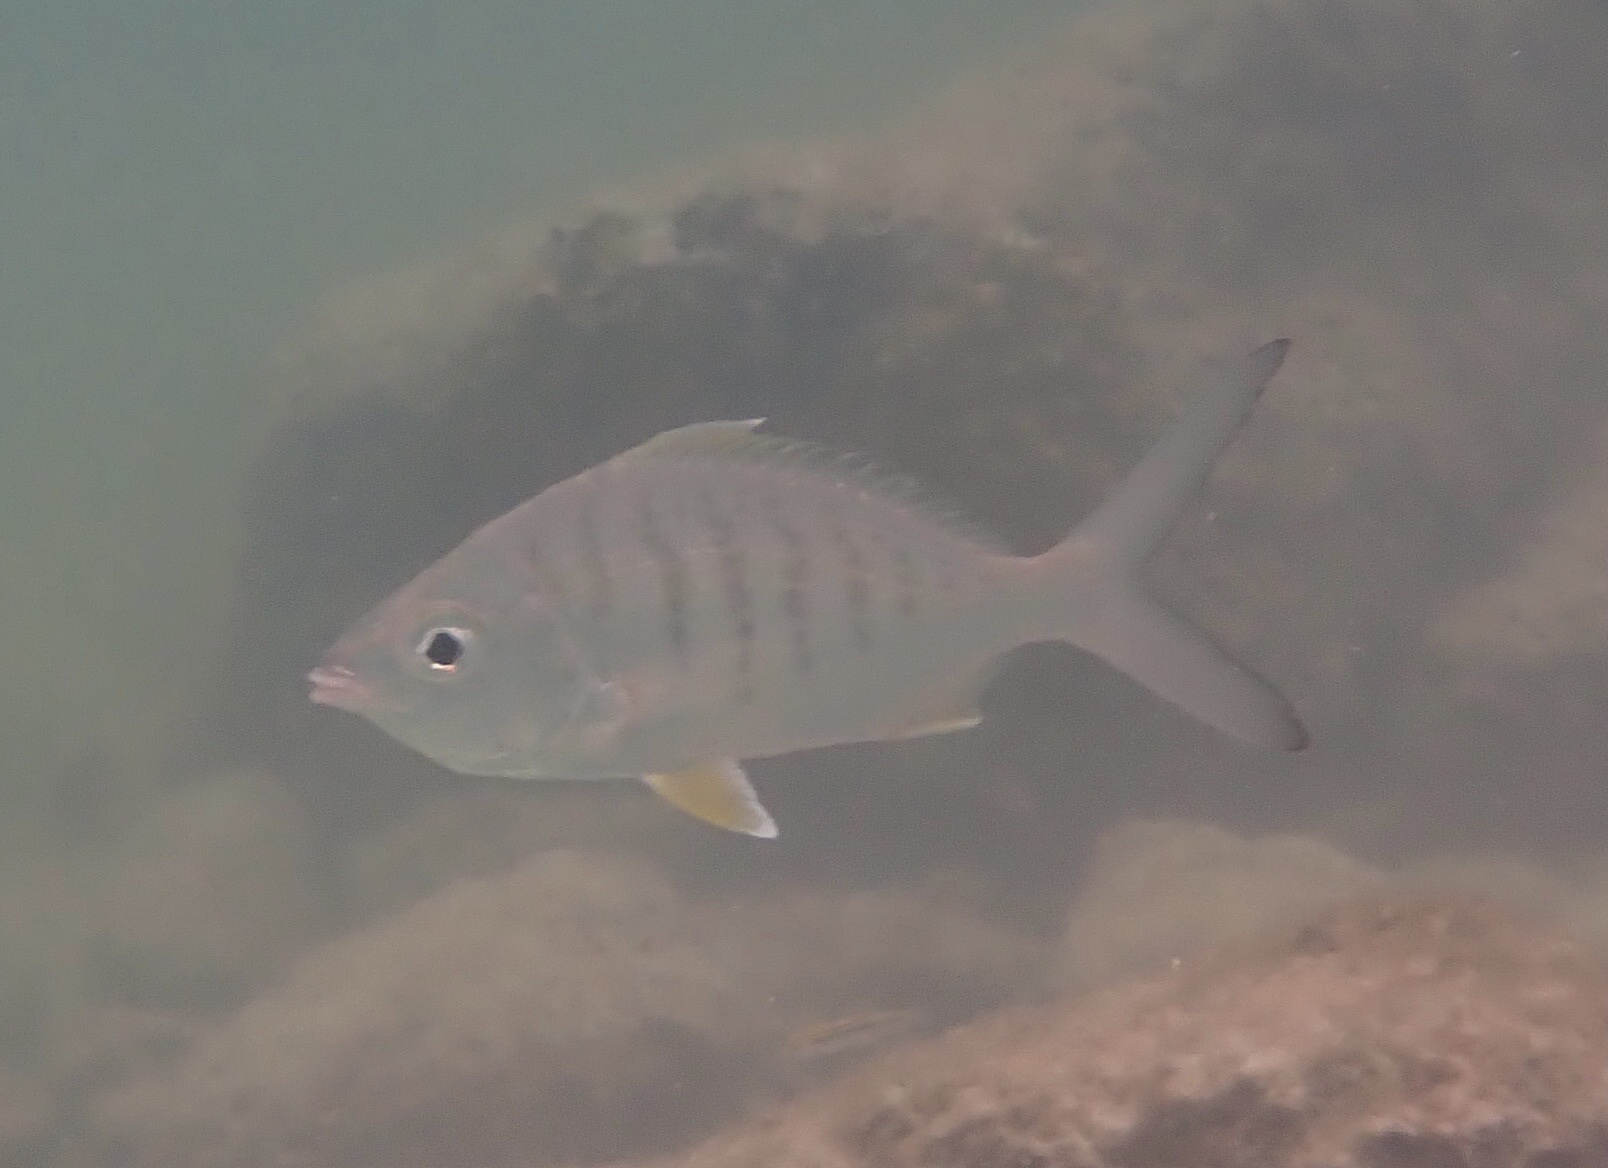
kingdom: Animalia
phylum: Chordata
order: Perciformes
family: Gerreidae
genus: Gerres
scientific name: Gerres cinereus
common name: Hedow
